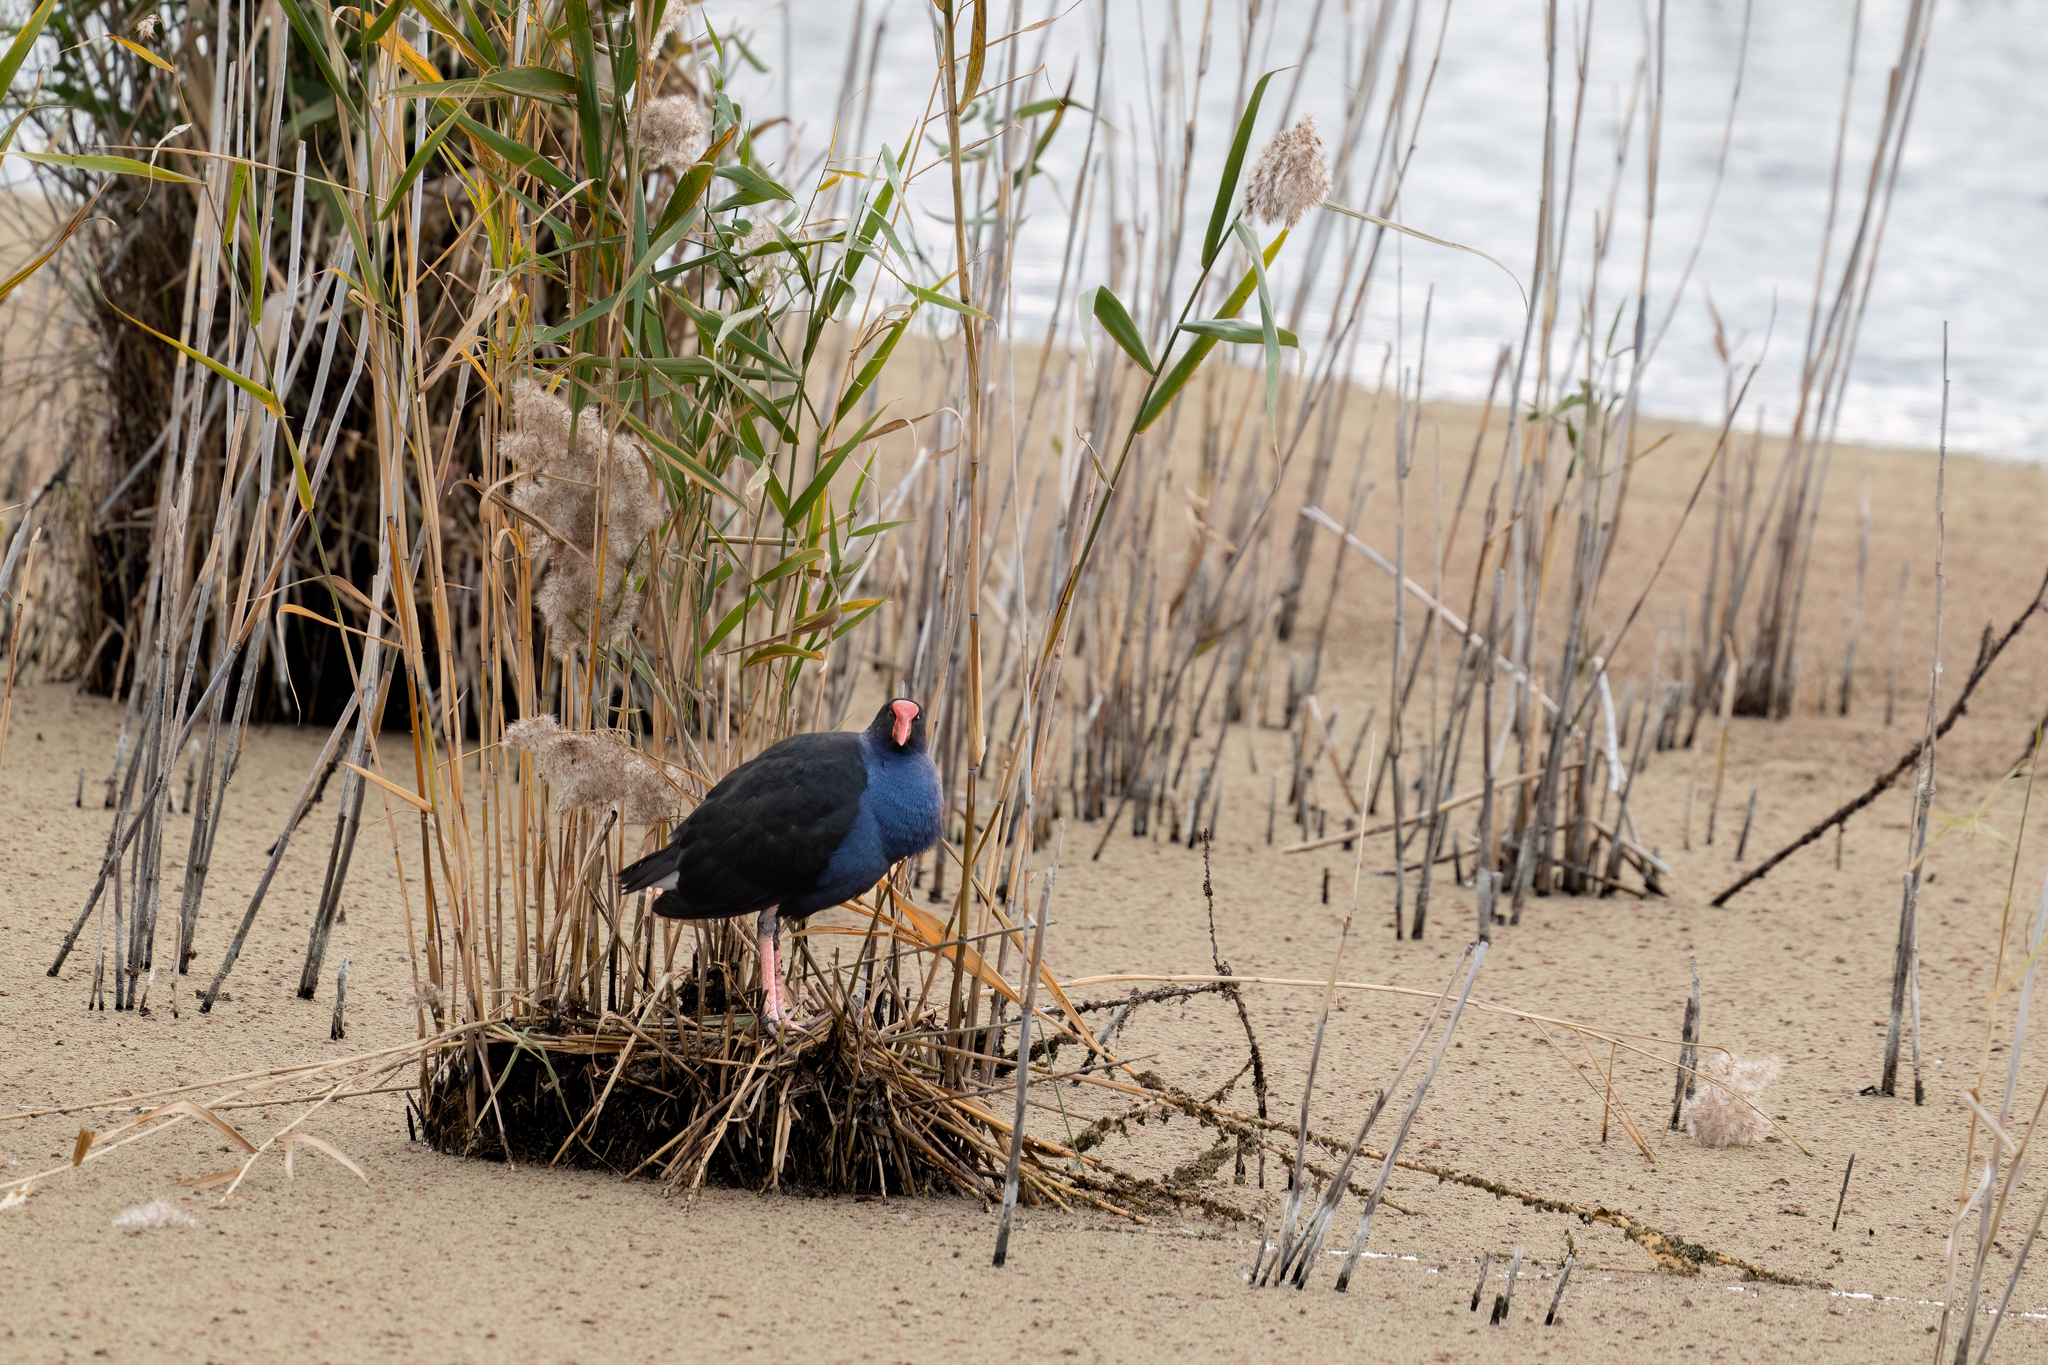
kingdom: Animalia
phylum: Chordata
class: Aves
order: Gruiformes
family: Rallidae
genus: Porphyrio
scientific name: Porphyrio melanotus
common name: Australasian swamphen
